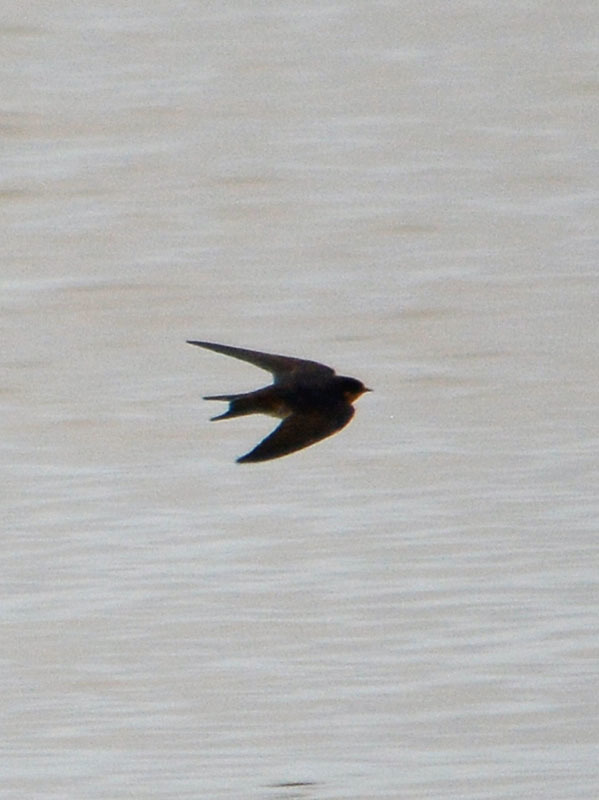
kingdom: Animalia
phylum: Chordata
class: Aves
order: Passeriformes
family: Hirundinidae
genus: Hirundo
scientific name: Hirundo rustica
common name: Barn swallow
